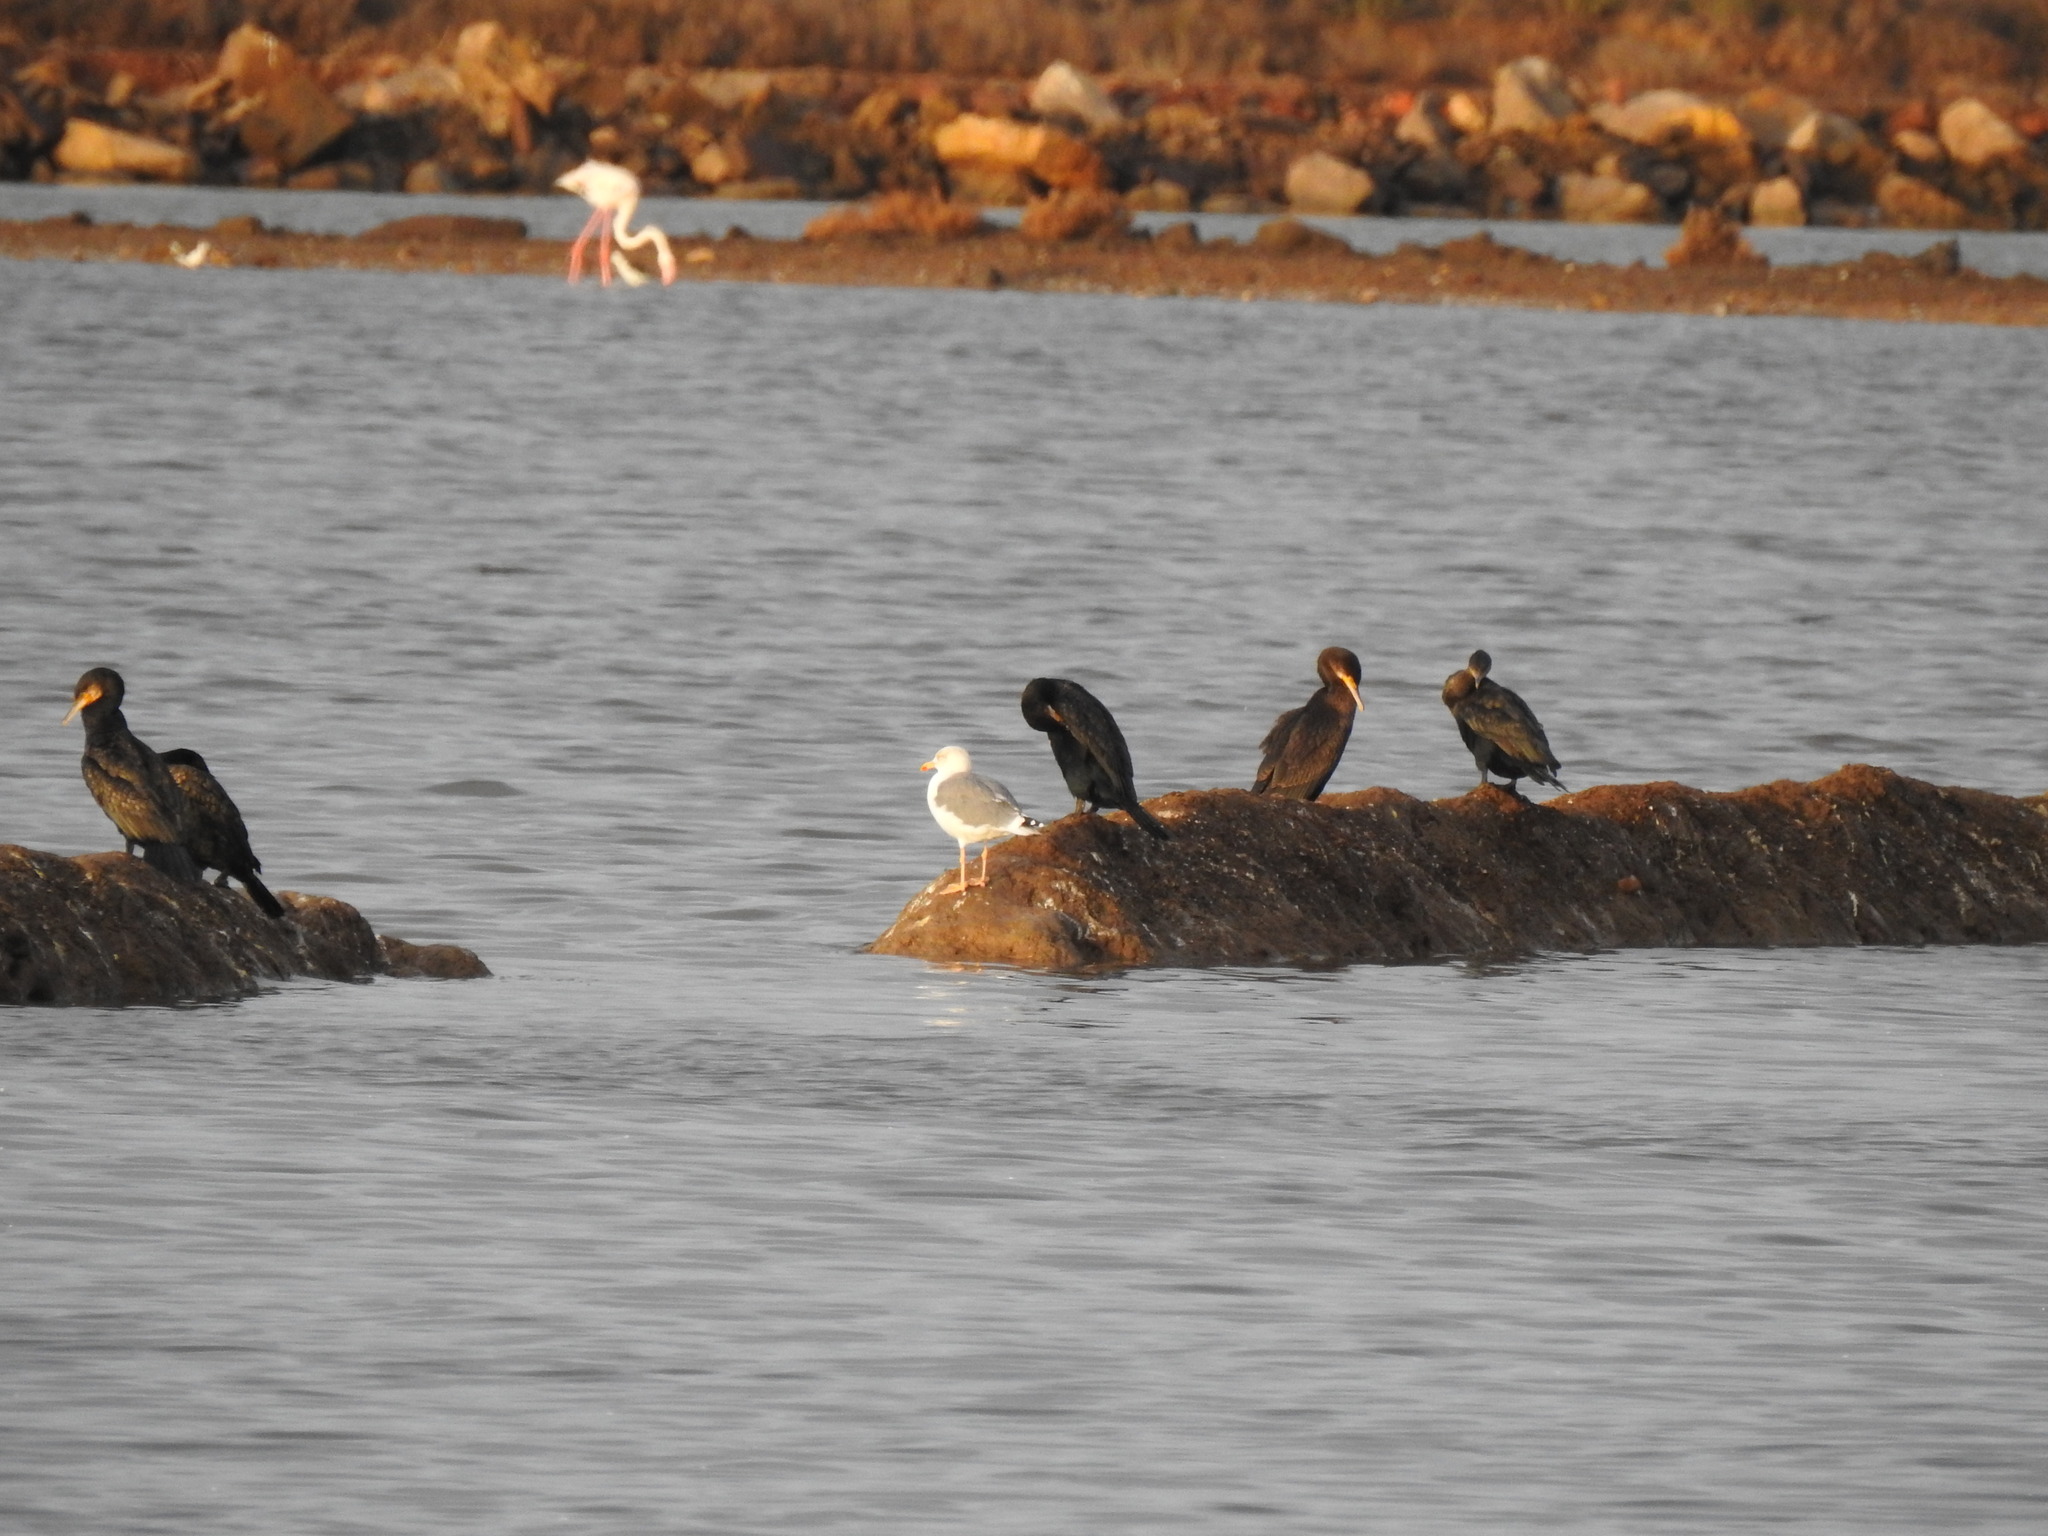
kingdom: Animalia
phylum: Chordata
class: Aves
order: Suliformes
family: Phalacrocoracidae
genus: Phalacrocorax
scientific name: Phalacrocorax carbo
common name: Great cormorant
